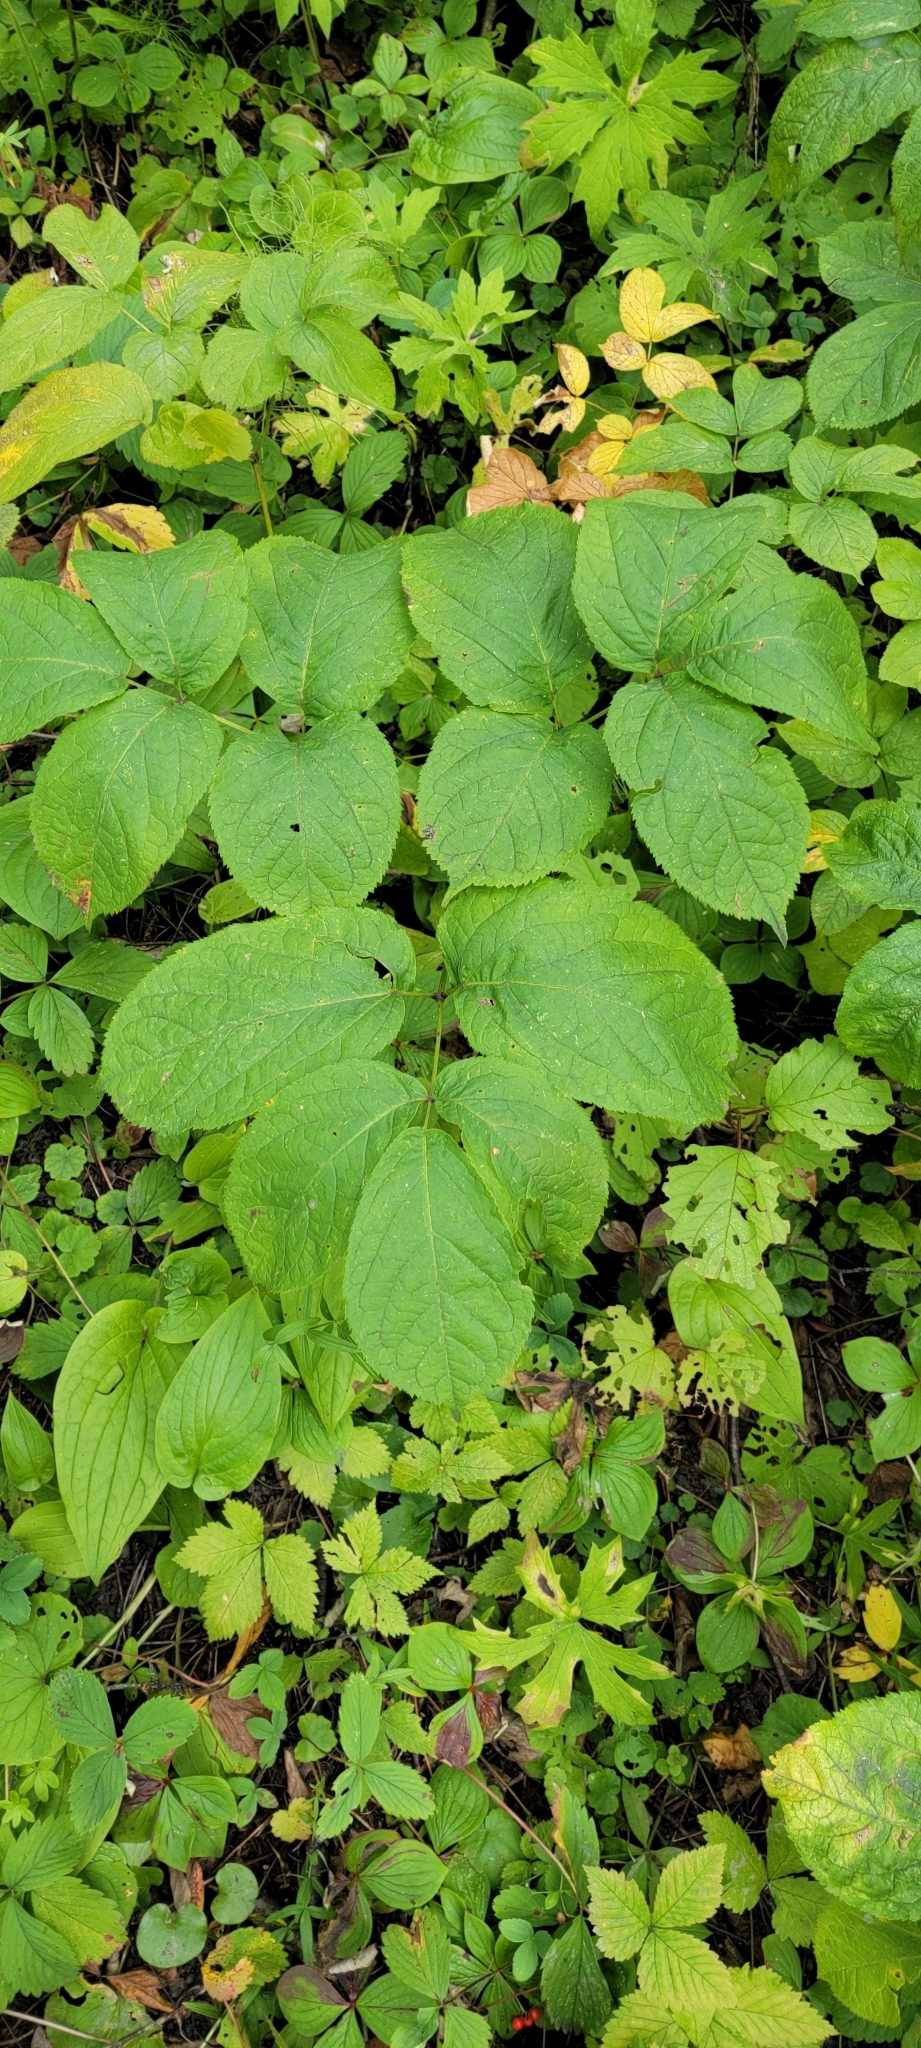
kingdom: Plantae
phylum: Tracheophyta
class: Magnoliopsida
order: Apiales
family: Araliaceae
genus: Aralia
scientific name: Aralia nudicaulis
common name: Wild sarsaparilla
